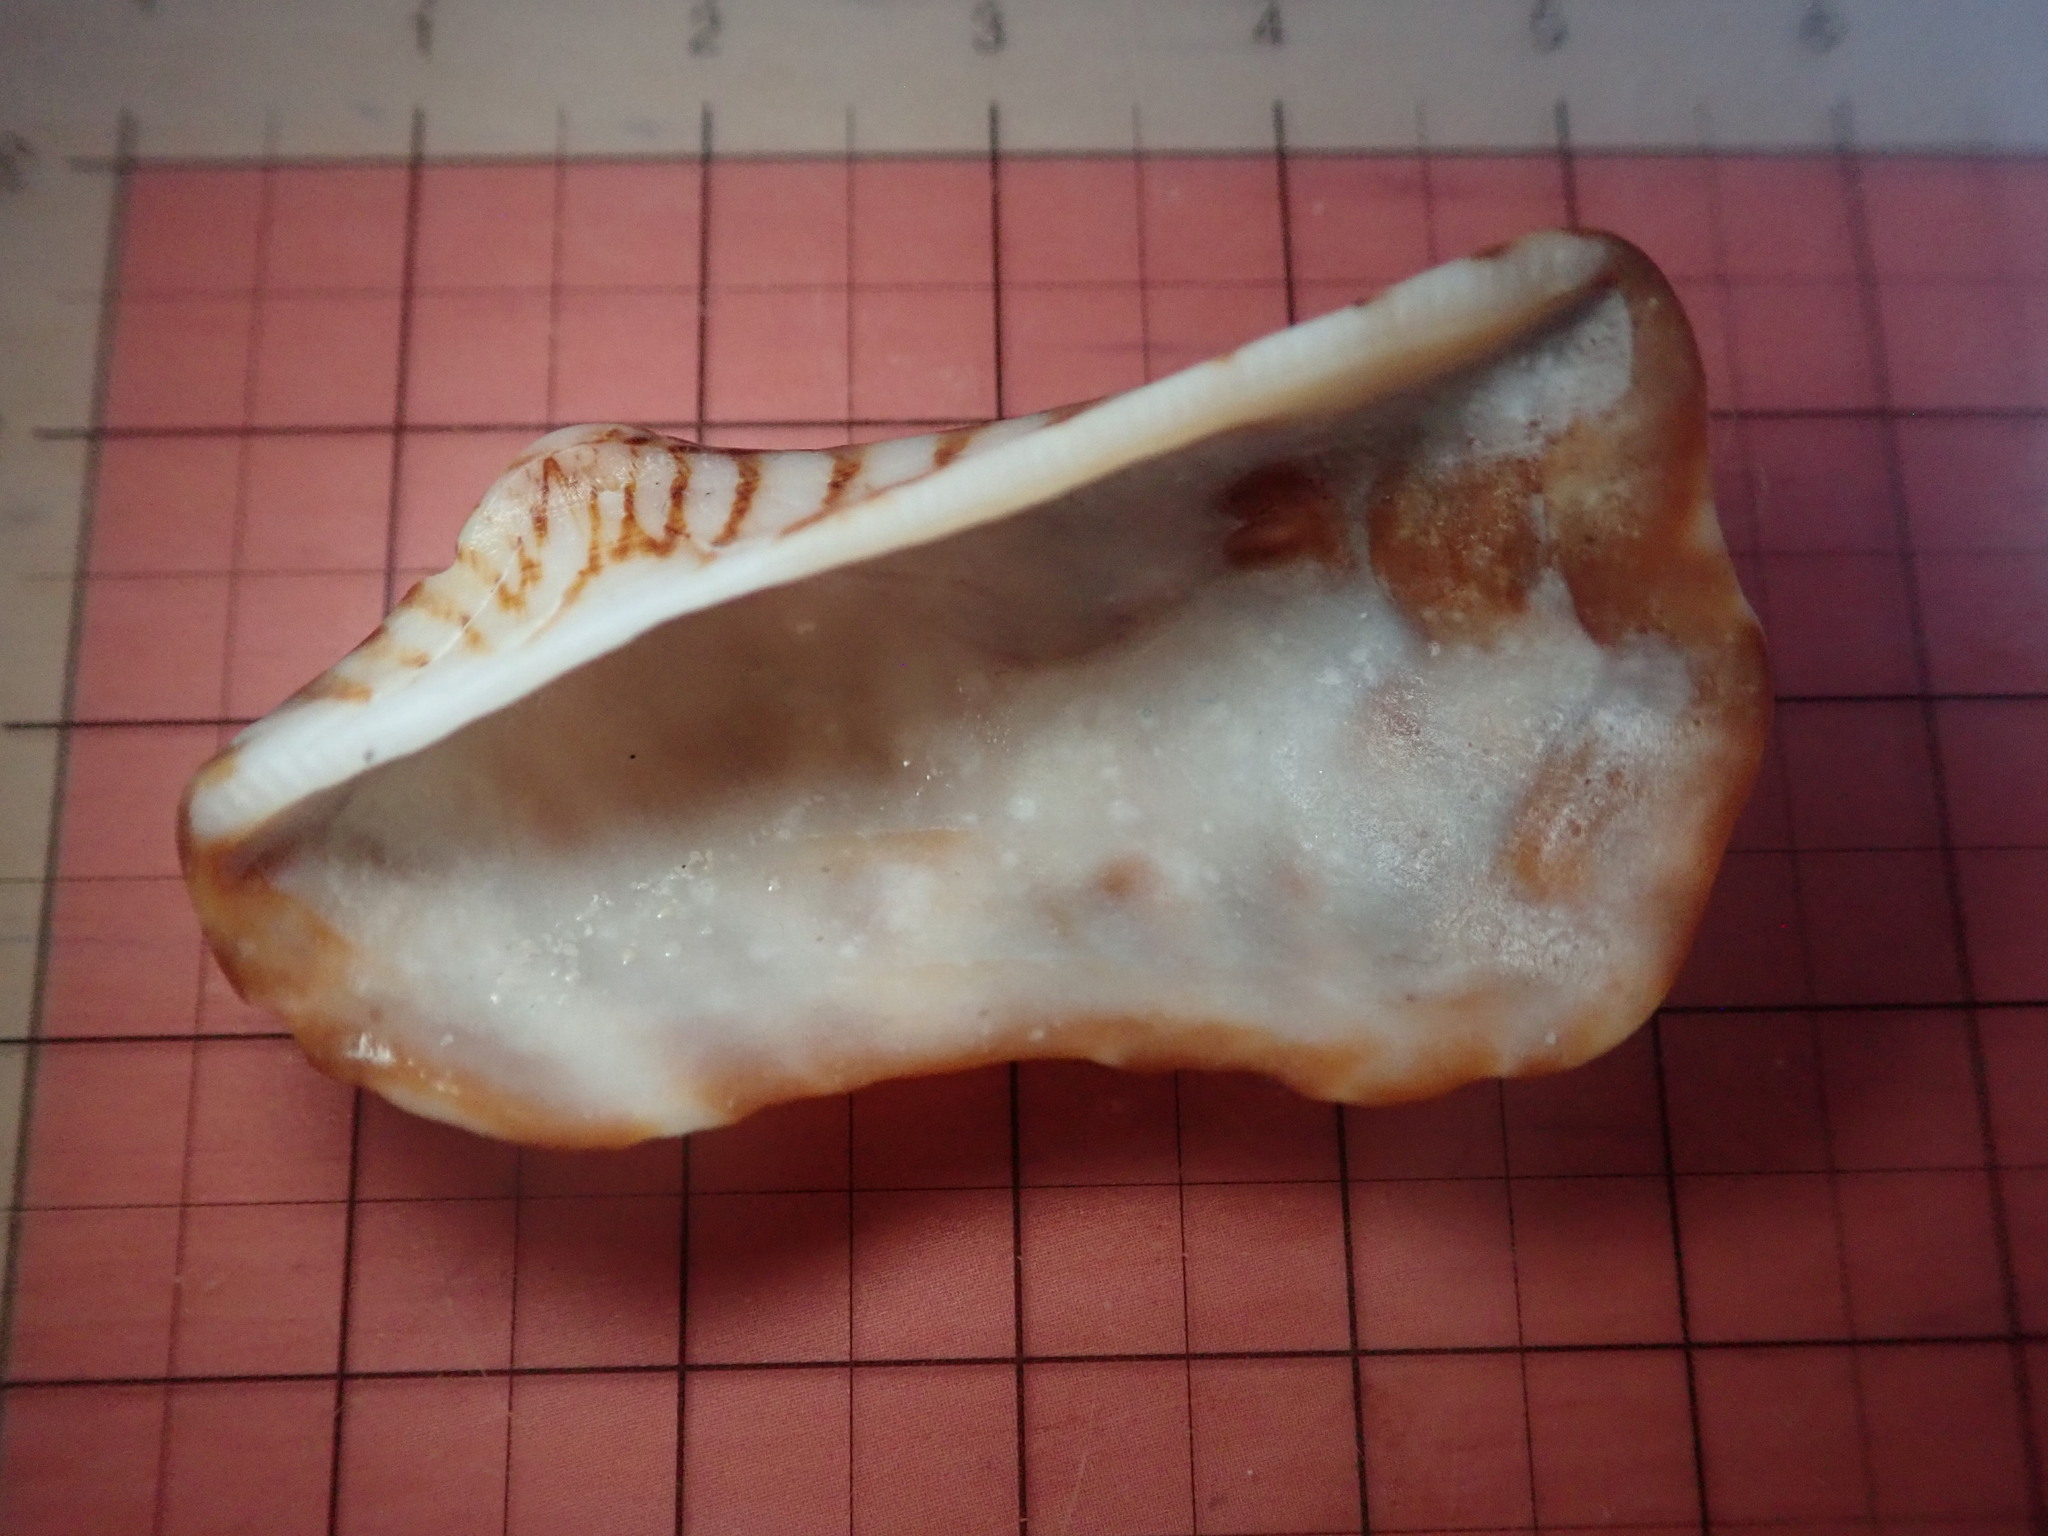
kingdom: Animalia
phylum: Mollusca
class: Bivalvia
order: Arcida
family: Arcidae
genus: Arca
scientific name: Arca pacifica
